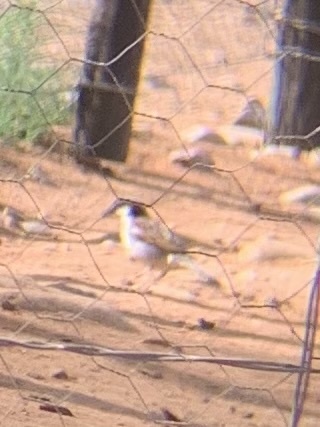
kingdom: Animalia
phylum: Chordata
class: Aves
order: Passeriformes
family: Passeridae
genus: Passer
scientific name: Passer domesticus
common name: House sparrow
